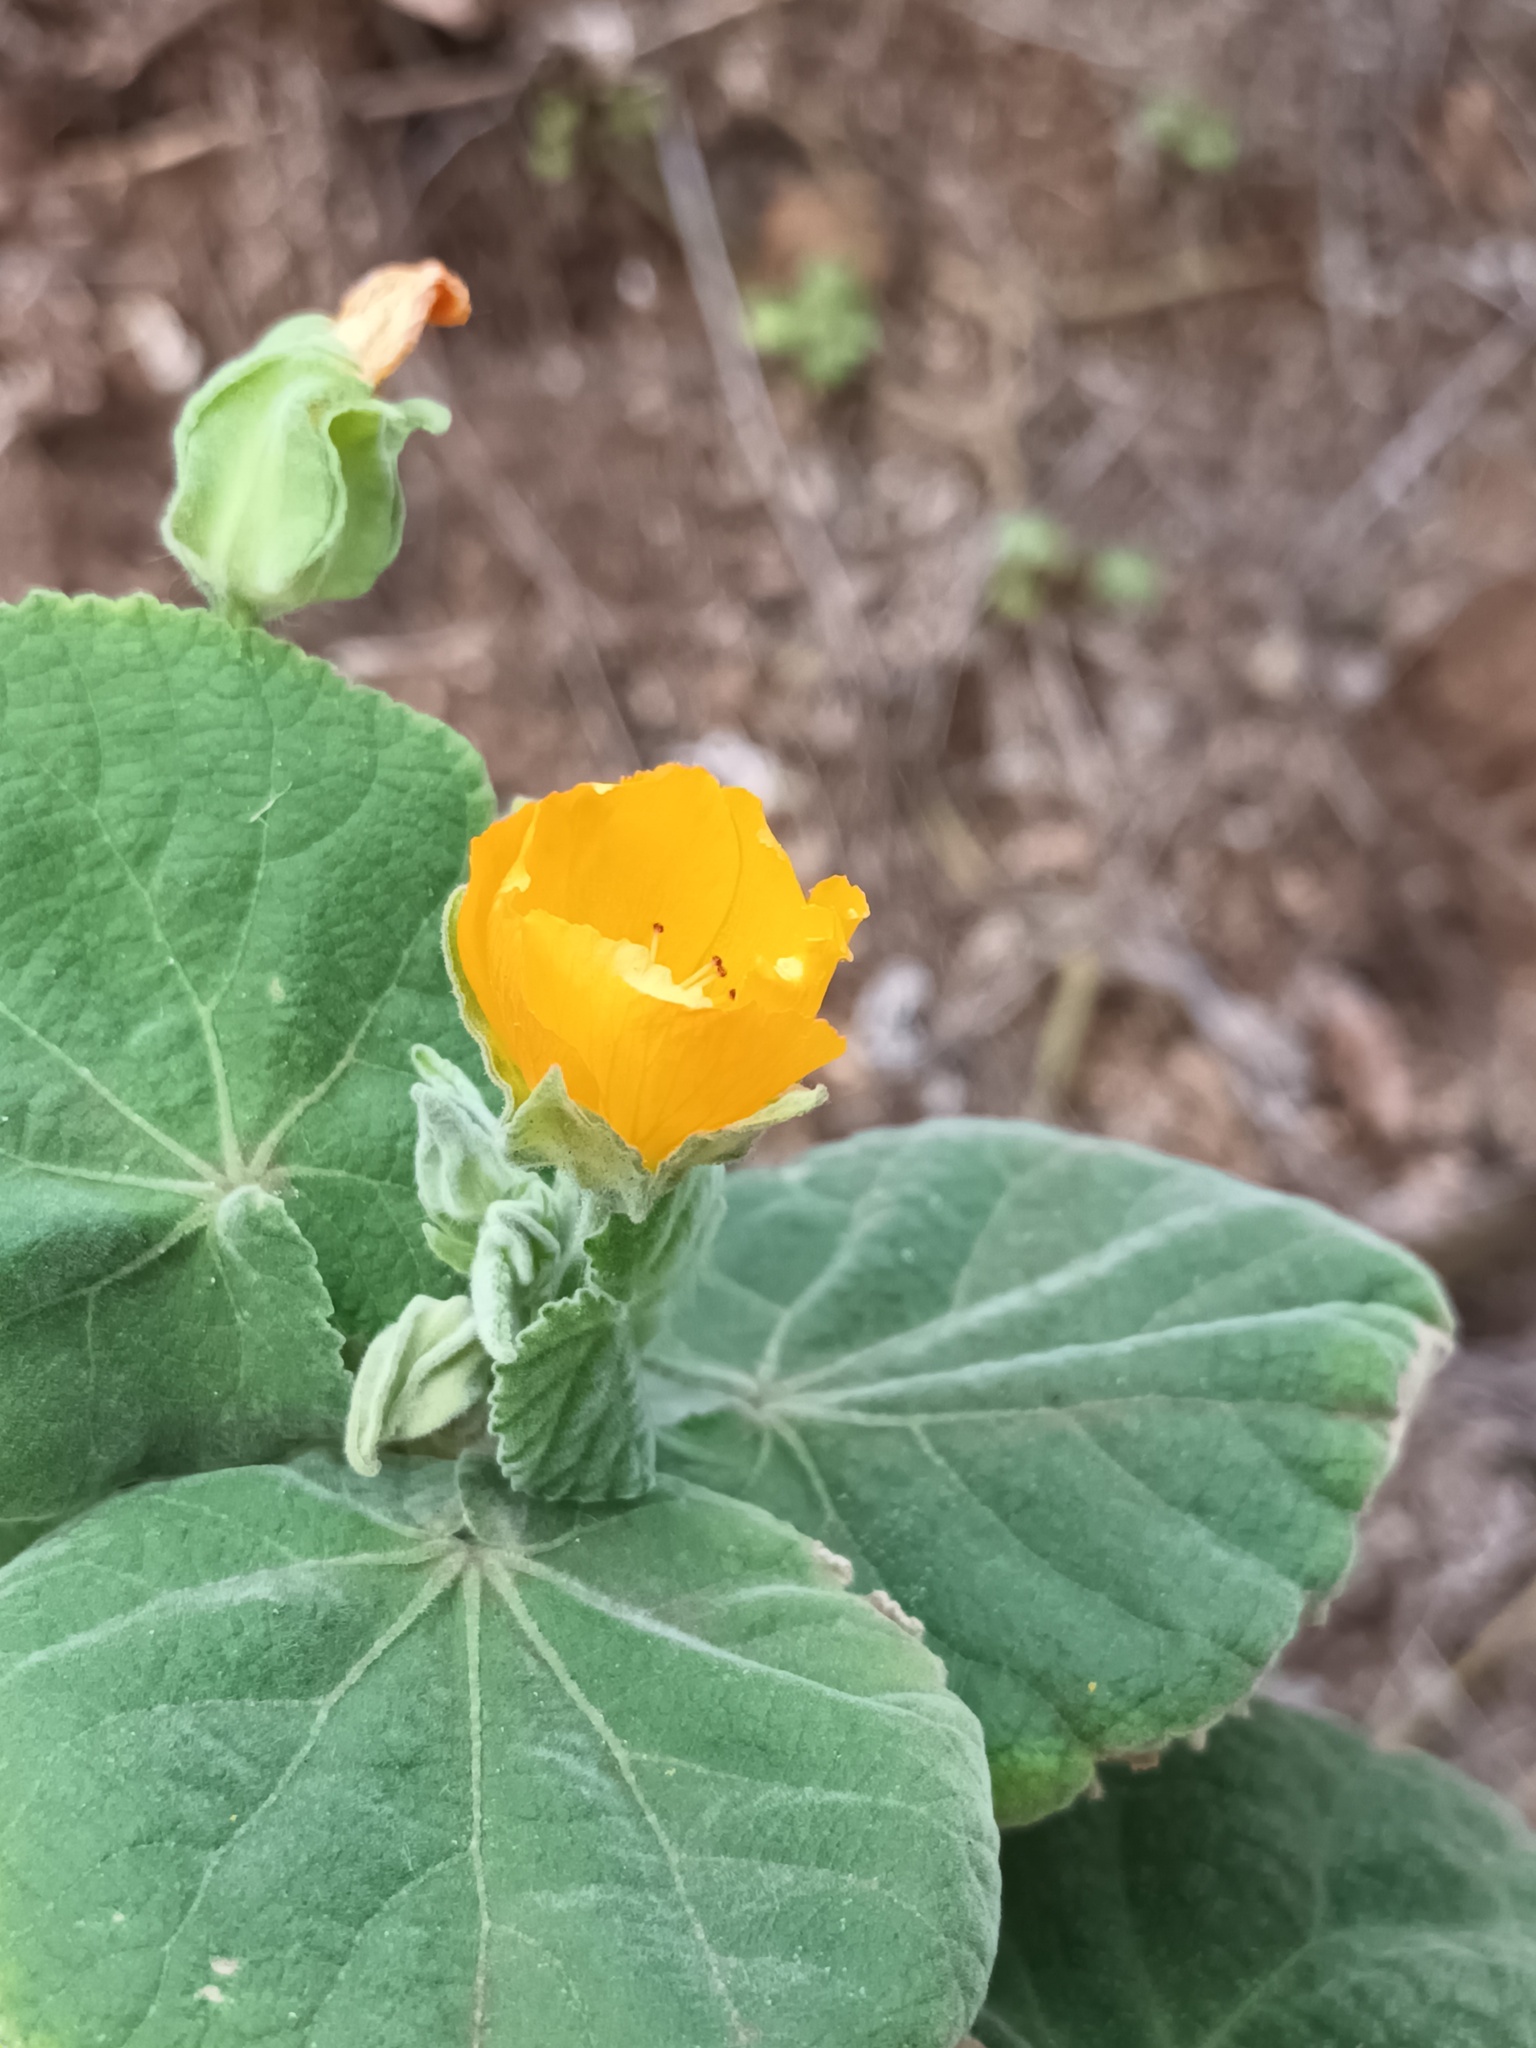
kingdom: Plantae
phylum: Tracheophyta
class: Magnoliopsida
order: Malvales
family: Malvaceae
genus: Abutilon
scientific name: Abutilon grandifolium
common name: Hairy abutilon
